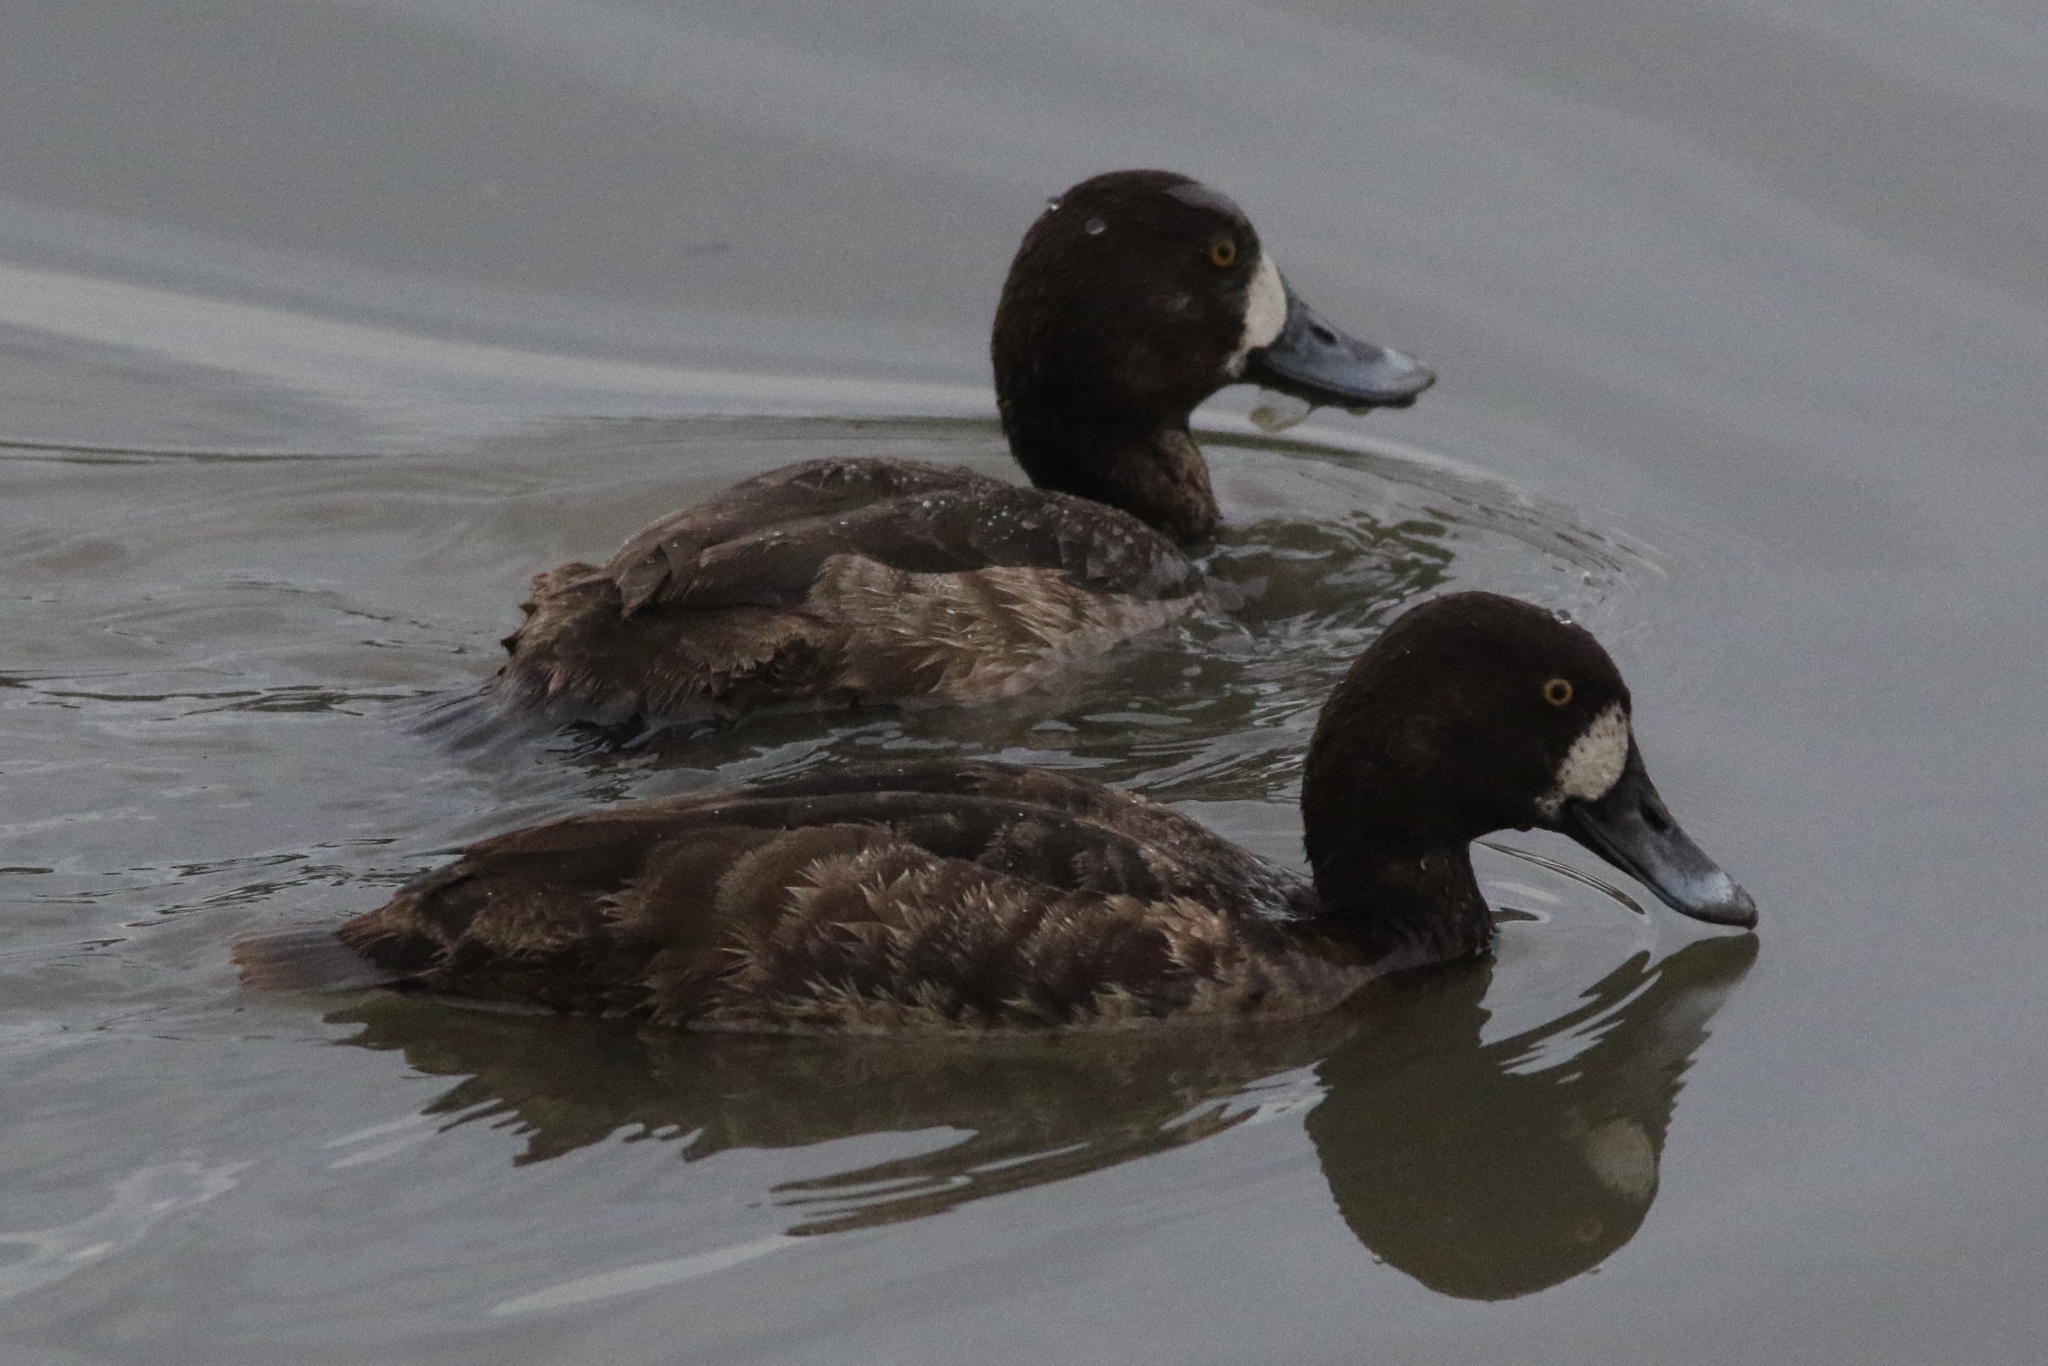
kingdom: Animalia
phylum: Chordata
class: Aves
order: Anseriformes
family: Anatidae
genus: Aythya
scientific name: Aythya marila
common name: Greater scaup
